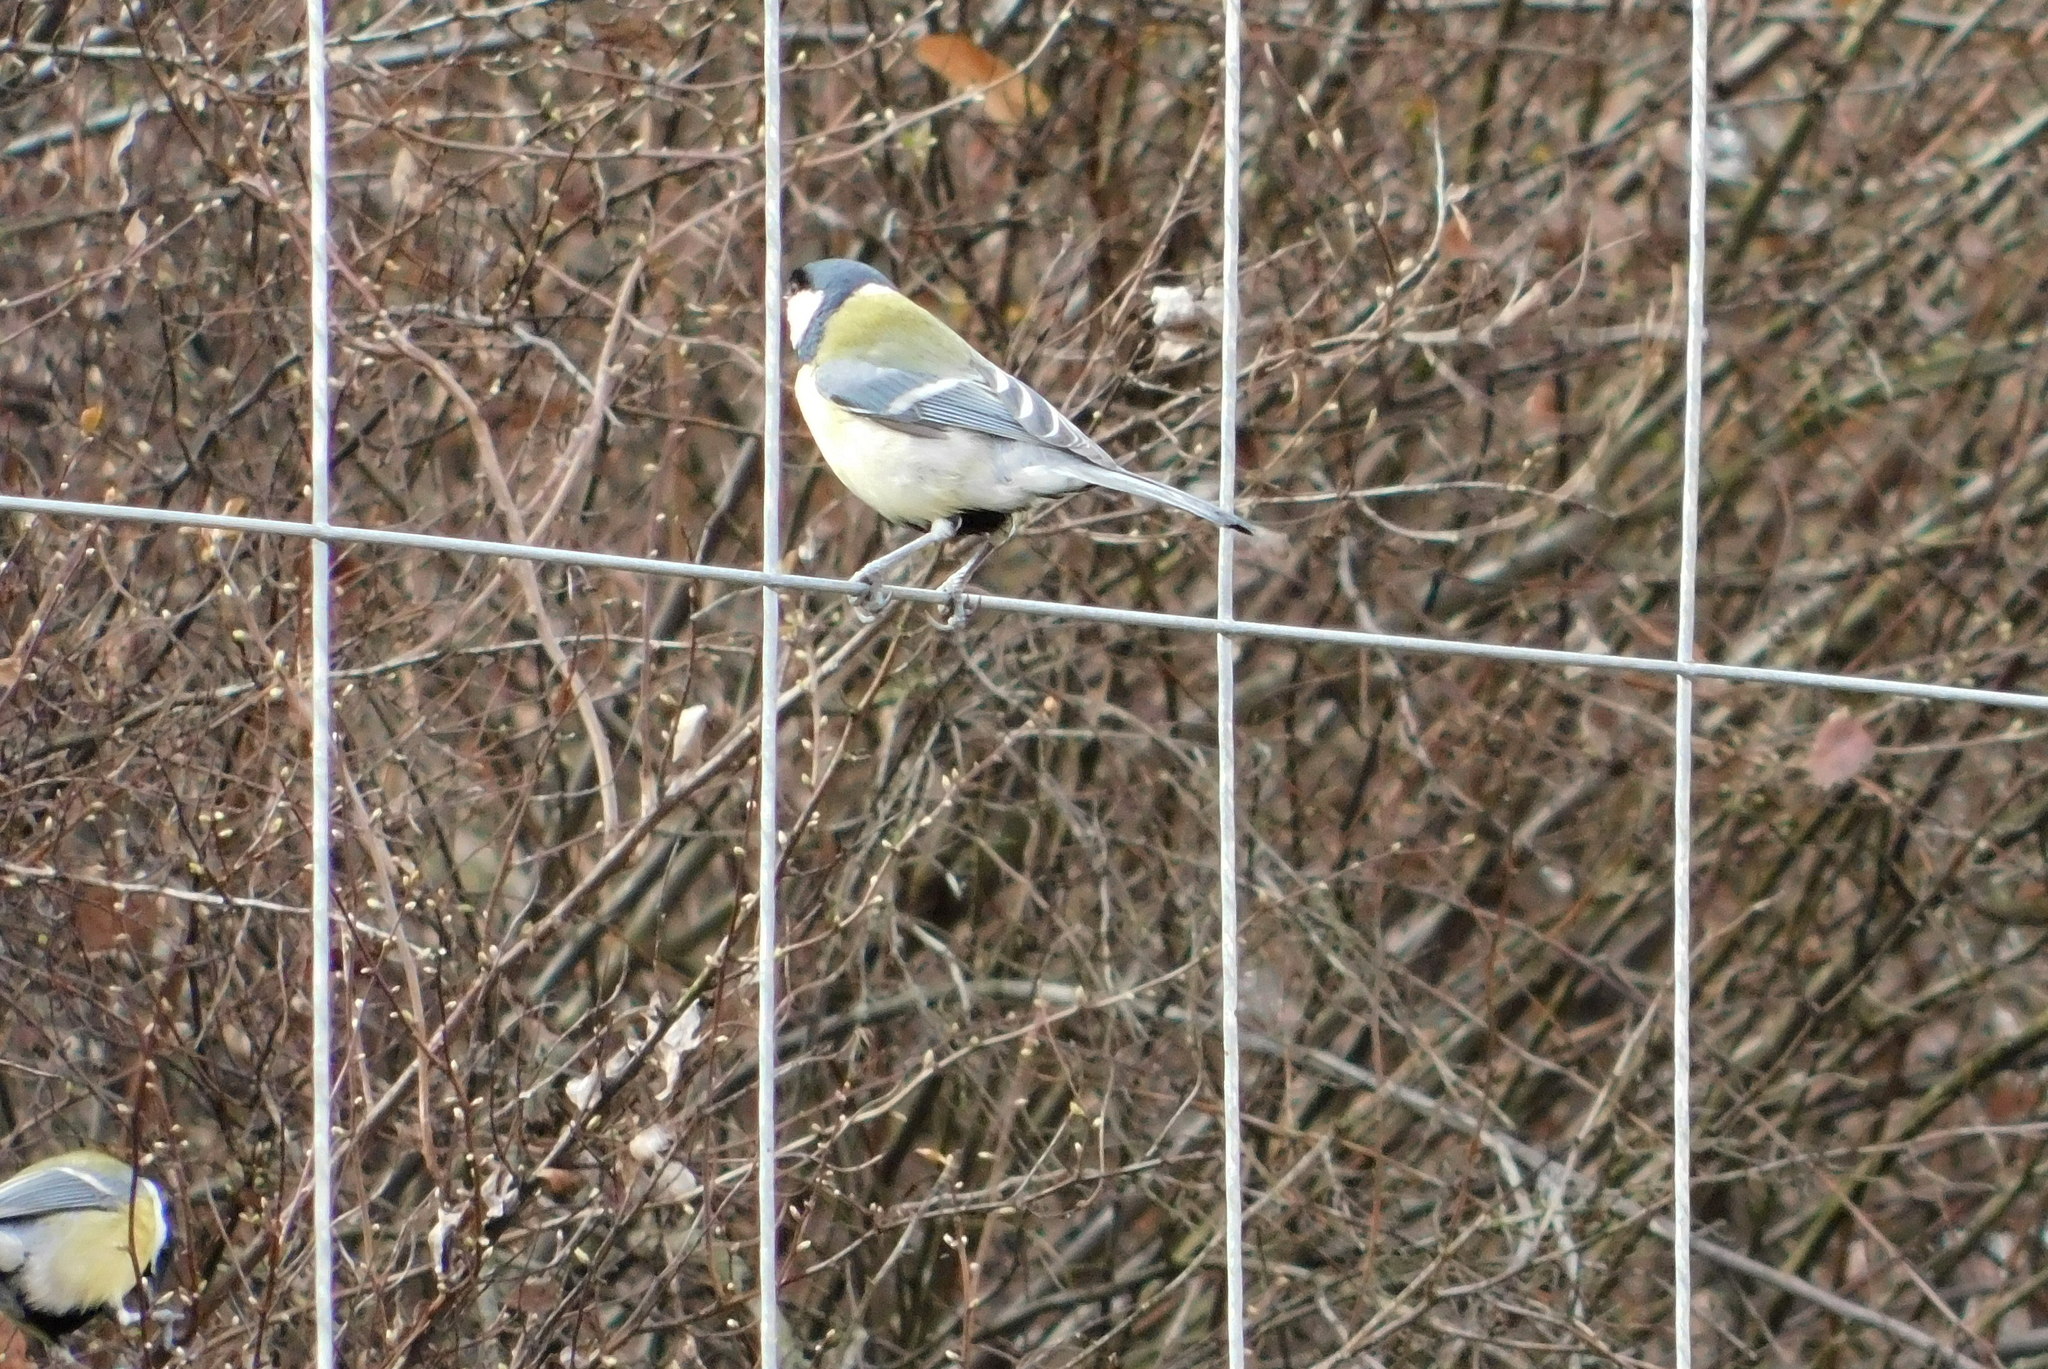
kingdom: Animalia
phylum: Chordata
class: Aves
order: Passeriformes
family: Paridae
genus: Parus
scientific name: Parus major
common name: Great tit
